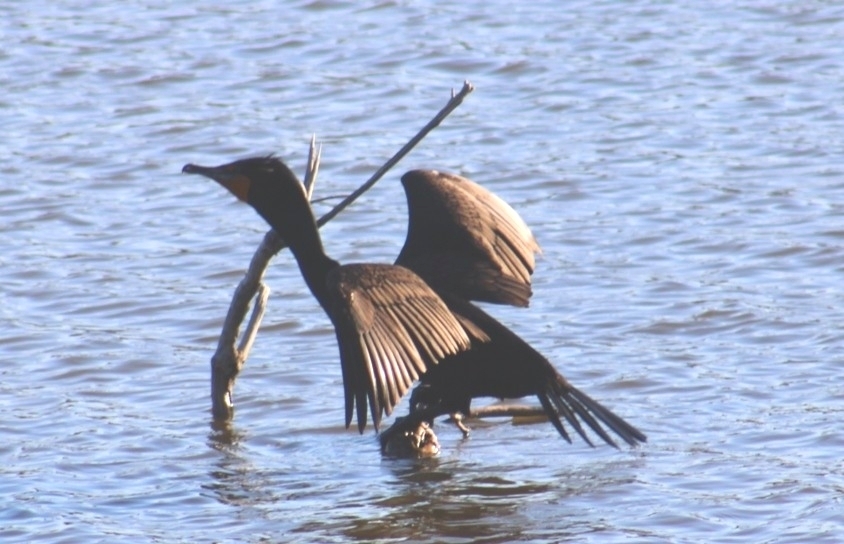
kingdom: Animalia
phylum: Chordata
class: Aves
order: Suliformes
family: Phalacrocoracidae
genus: Phalacrocorax
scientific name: Phalacrocorax auritus
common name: Double-crested cormorant
